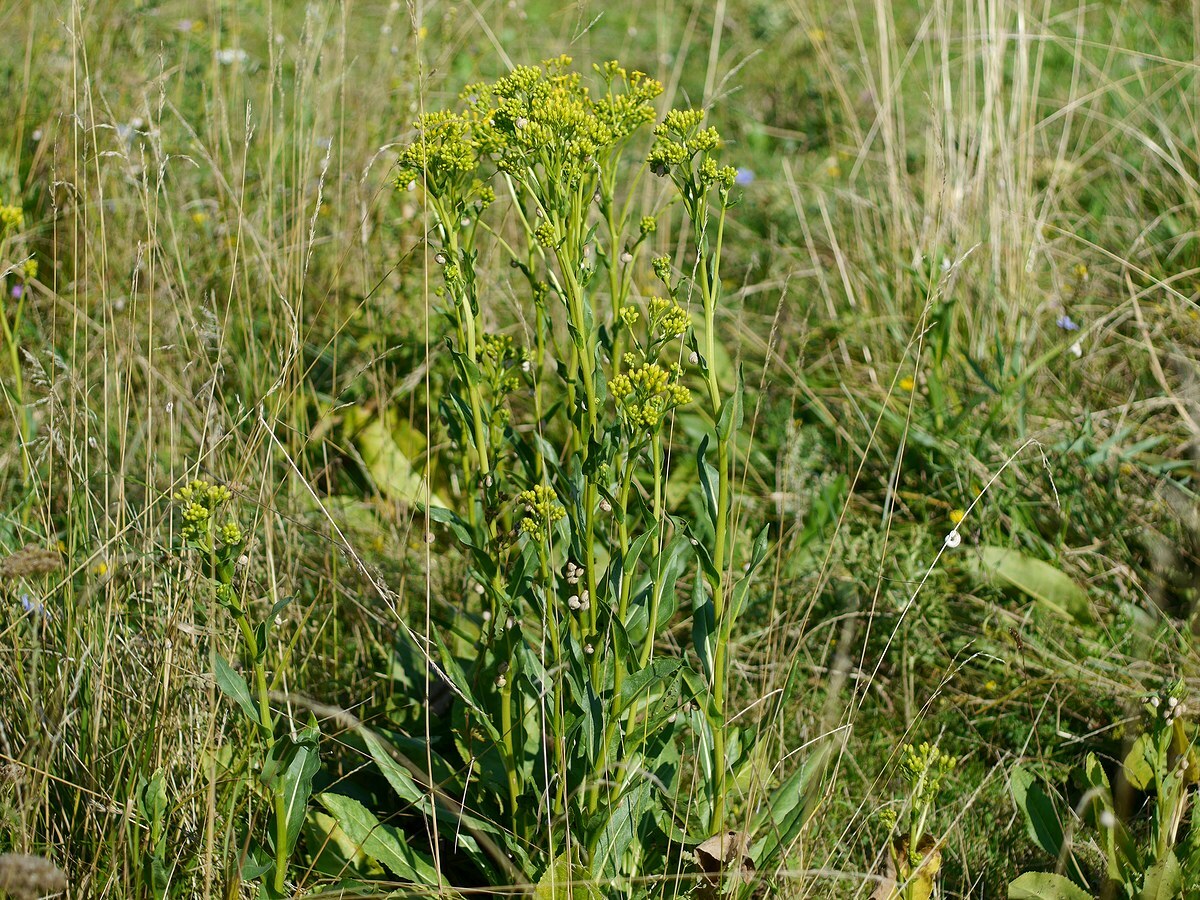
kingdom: Plantae
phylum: Tracheophyta
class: Magnoliopsida
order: Asterales
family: Asteraceae
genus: Senecio
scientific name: Senecio doria
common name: Golden ragwort
